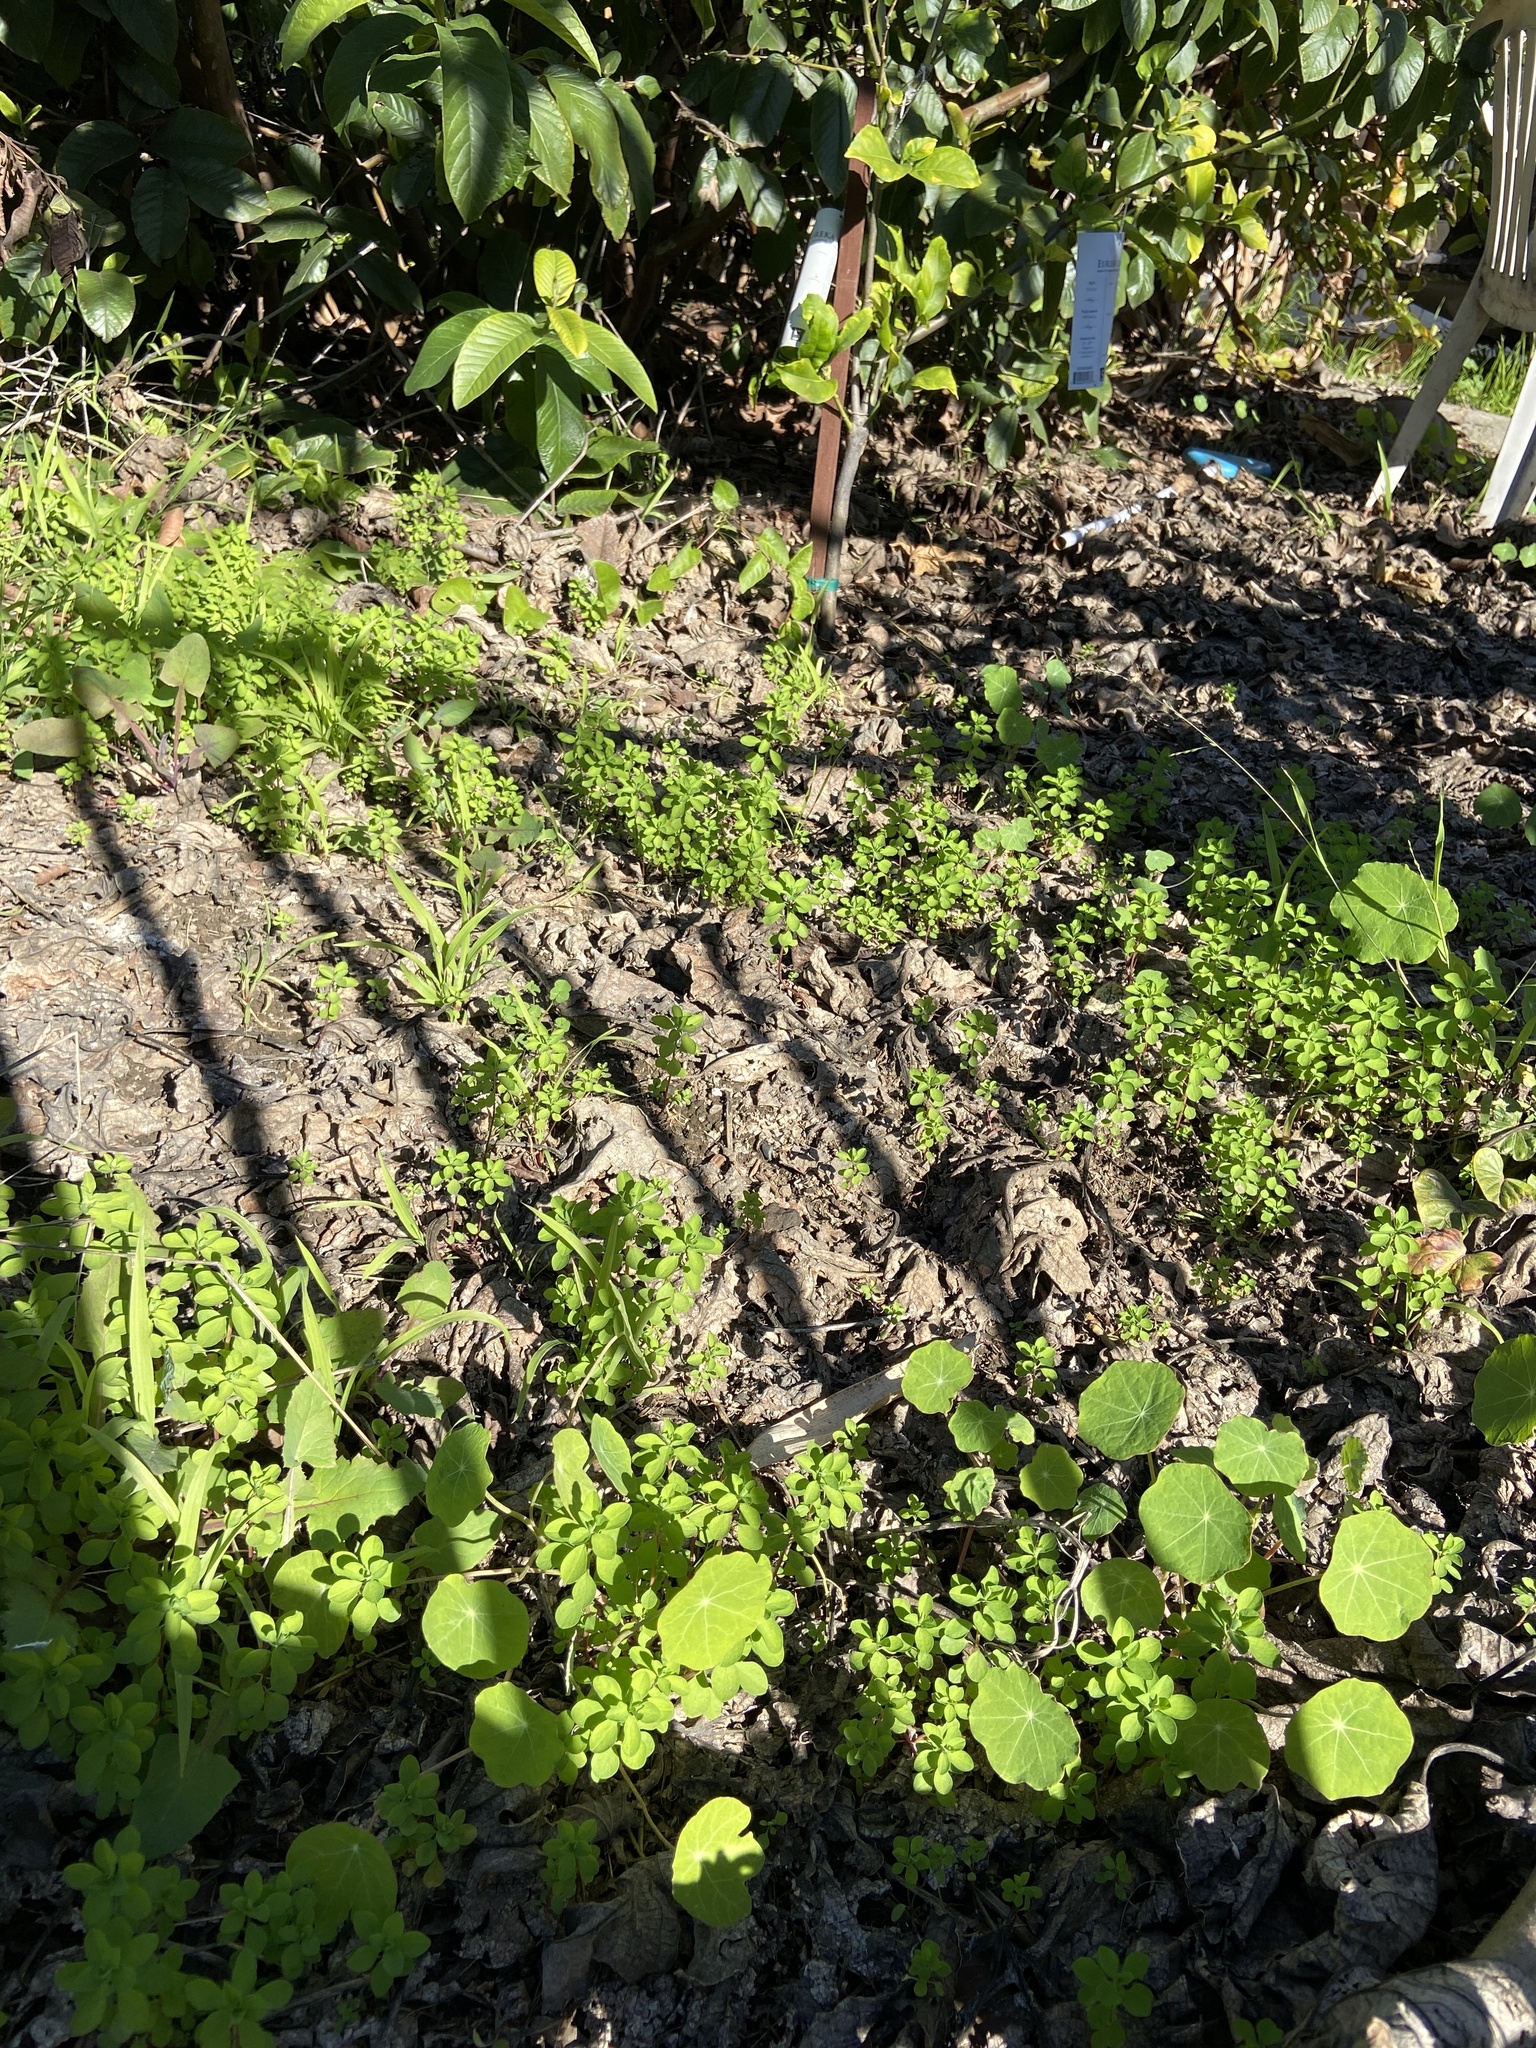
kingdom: Plantae
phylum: Tracheophyta
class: Magnoliopsida
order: Malpighiales
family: Euphorbiaceae
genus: Euphorbia
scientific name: Euphorbia peplus
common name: Petty spurge
